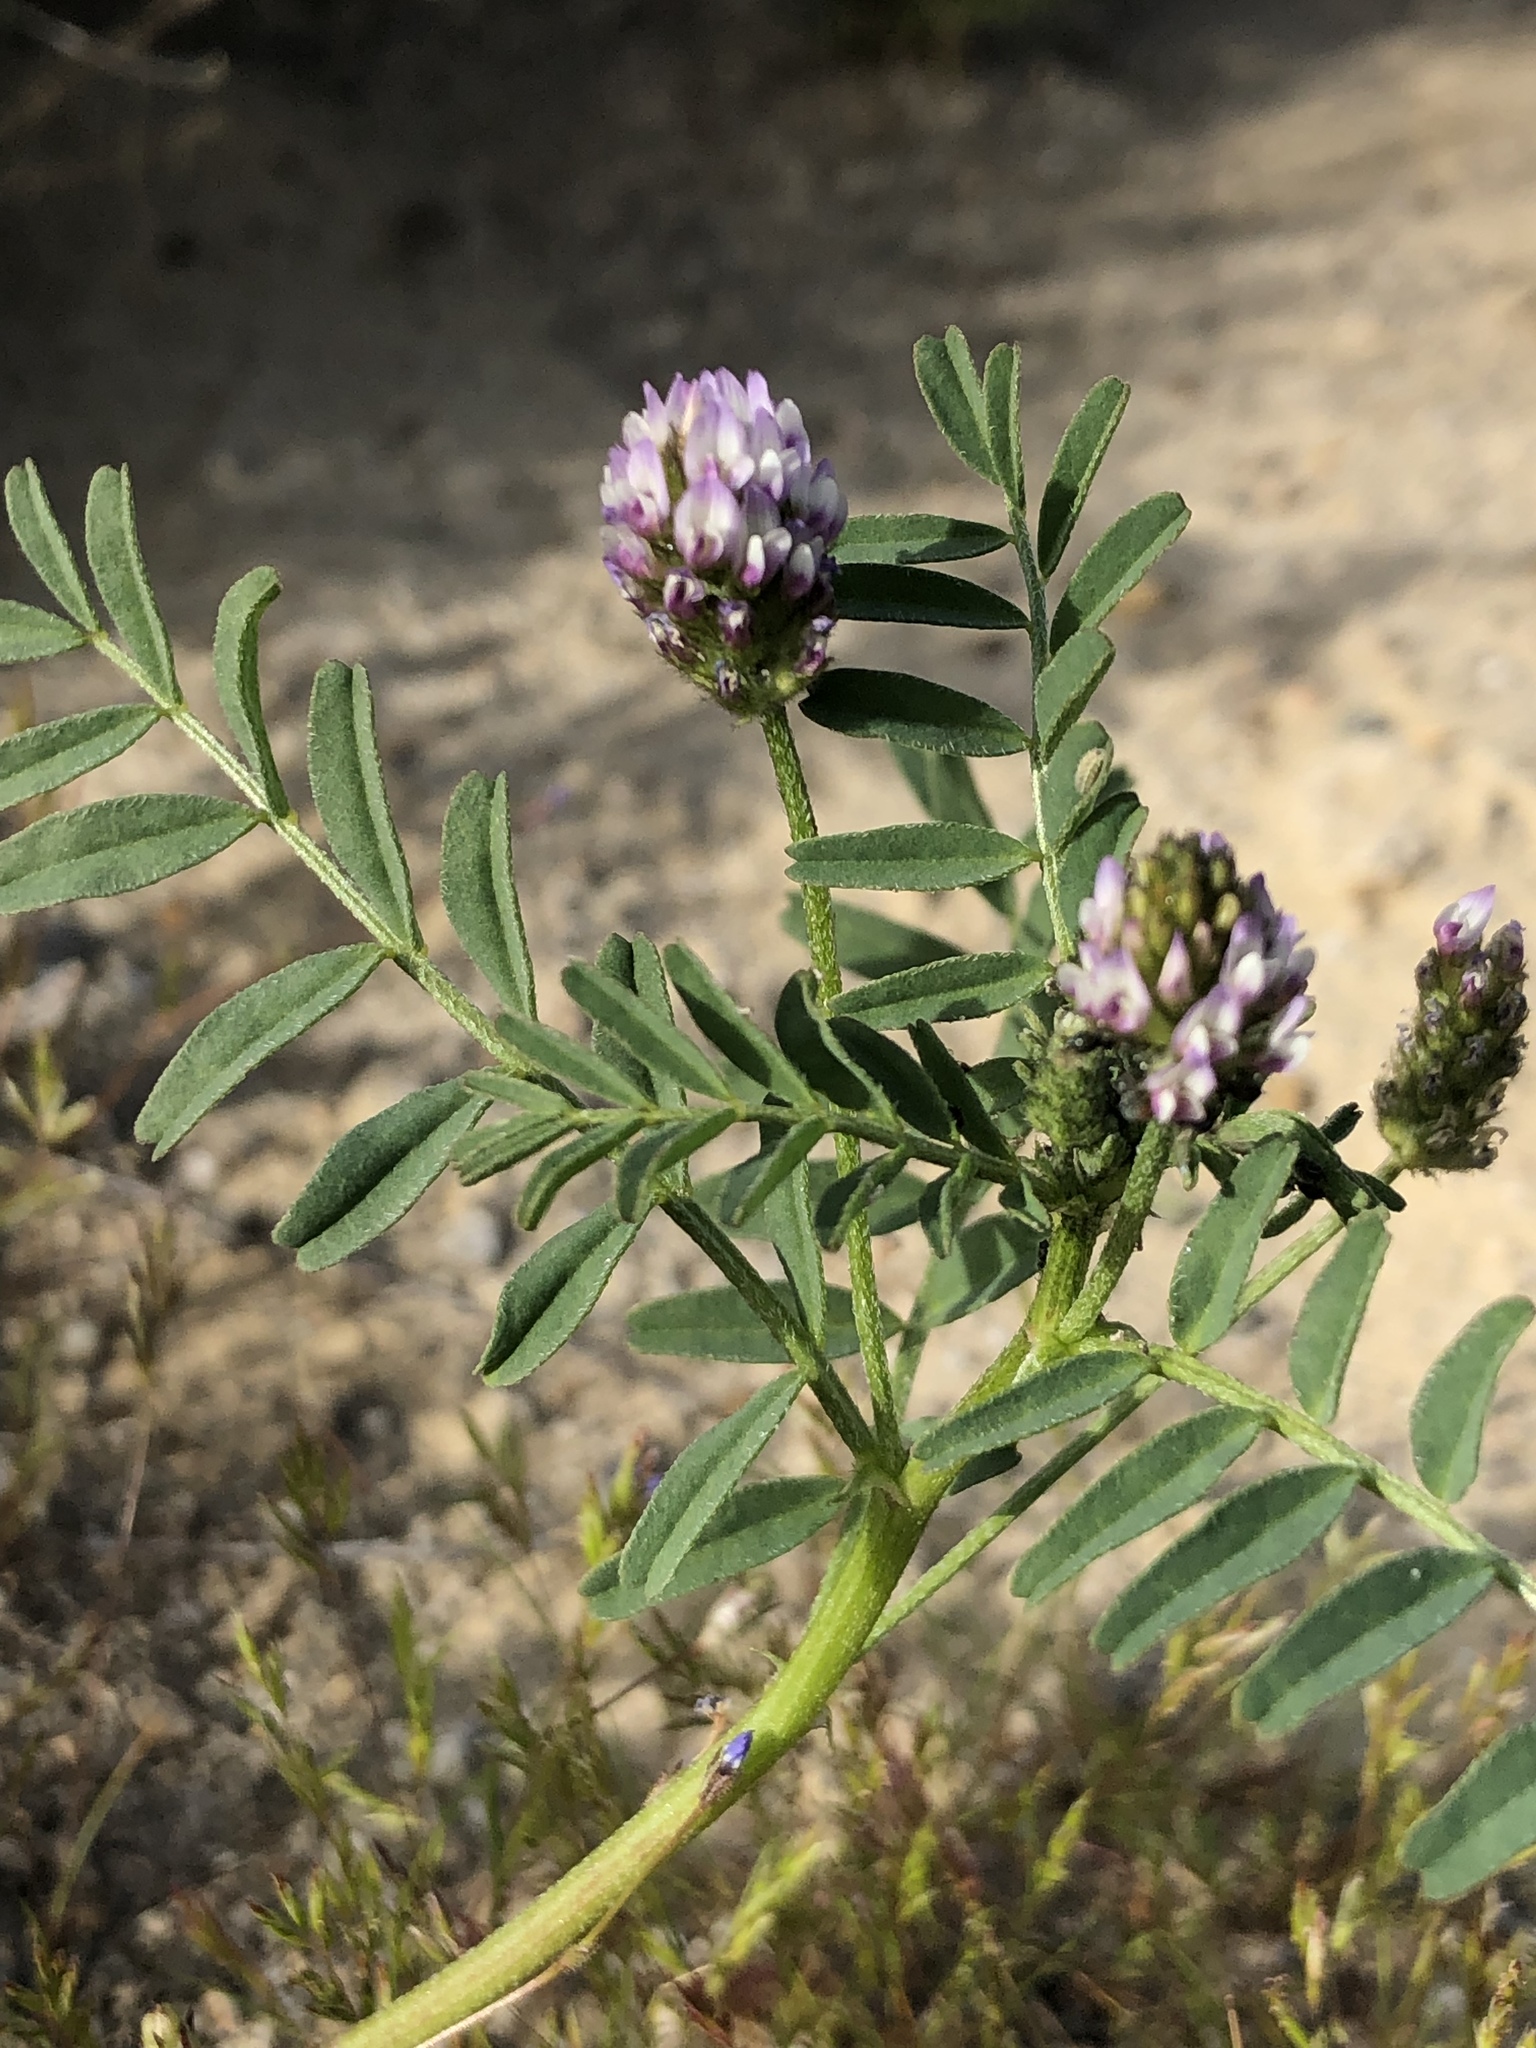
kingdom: Plantae
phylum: Tracheophyta
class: Magnoliopsida
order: Fabales
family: Fabaceae
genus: Astragalus
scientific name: Astragalus didymocarpus
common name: Dwarf white milkvetch
